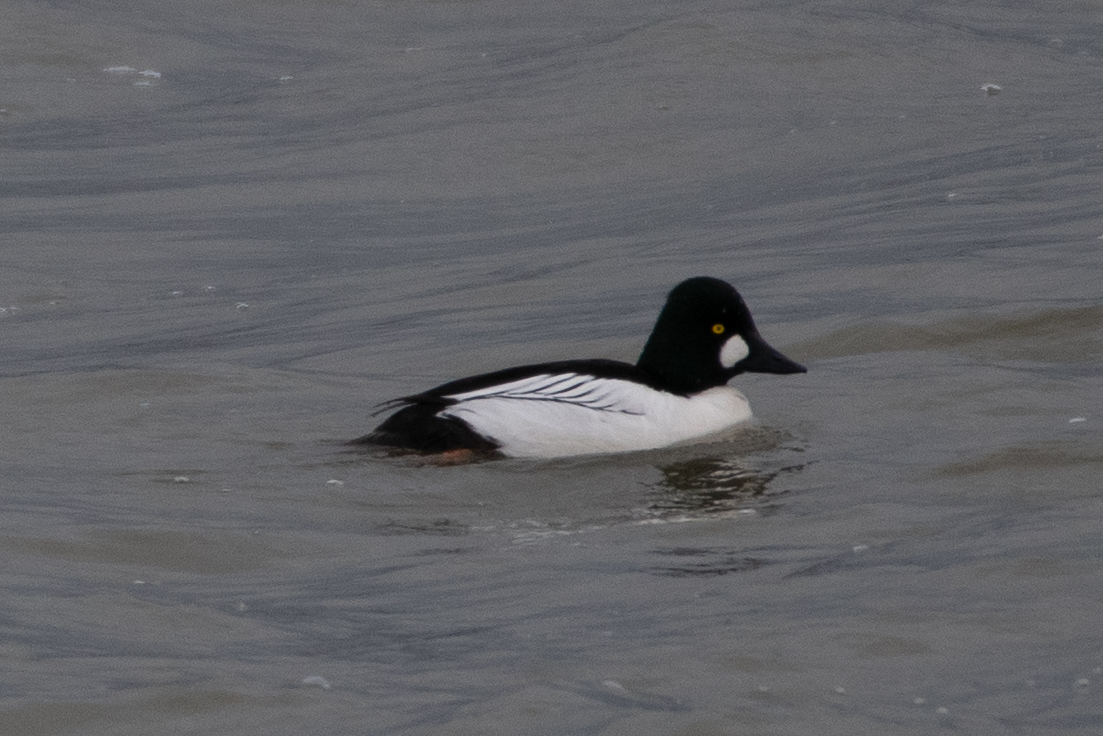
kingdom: Animalia
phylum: Chordata
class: Aves
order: Anseriformes
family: Anatidae
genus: Bucephala
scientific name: Bucephala clangula
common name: Common goldeneye
